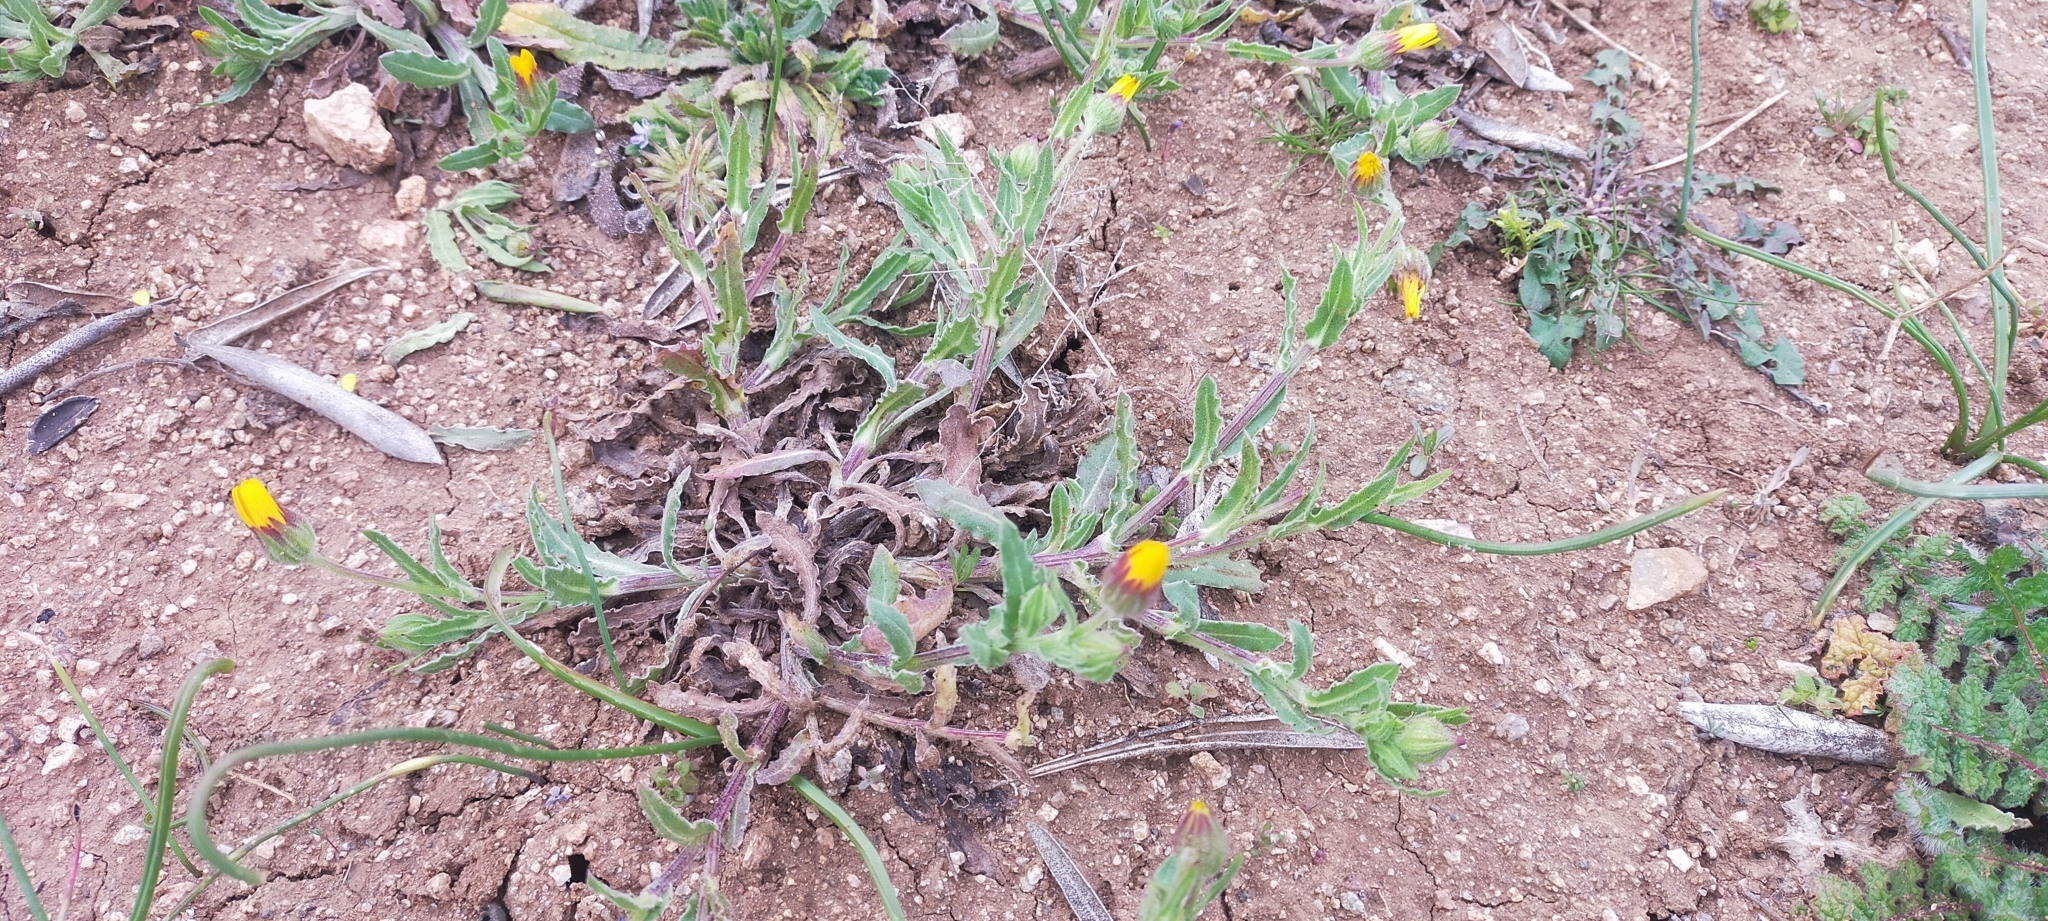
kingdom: Plantae
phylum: Tracheophyta
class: Magnoliopsida
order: Asterales
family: Asteraceae
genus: Calendula
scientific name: Calendula arvensis
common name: Field marigold
